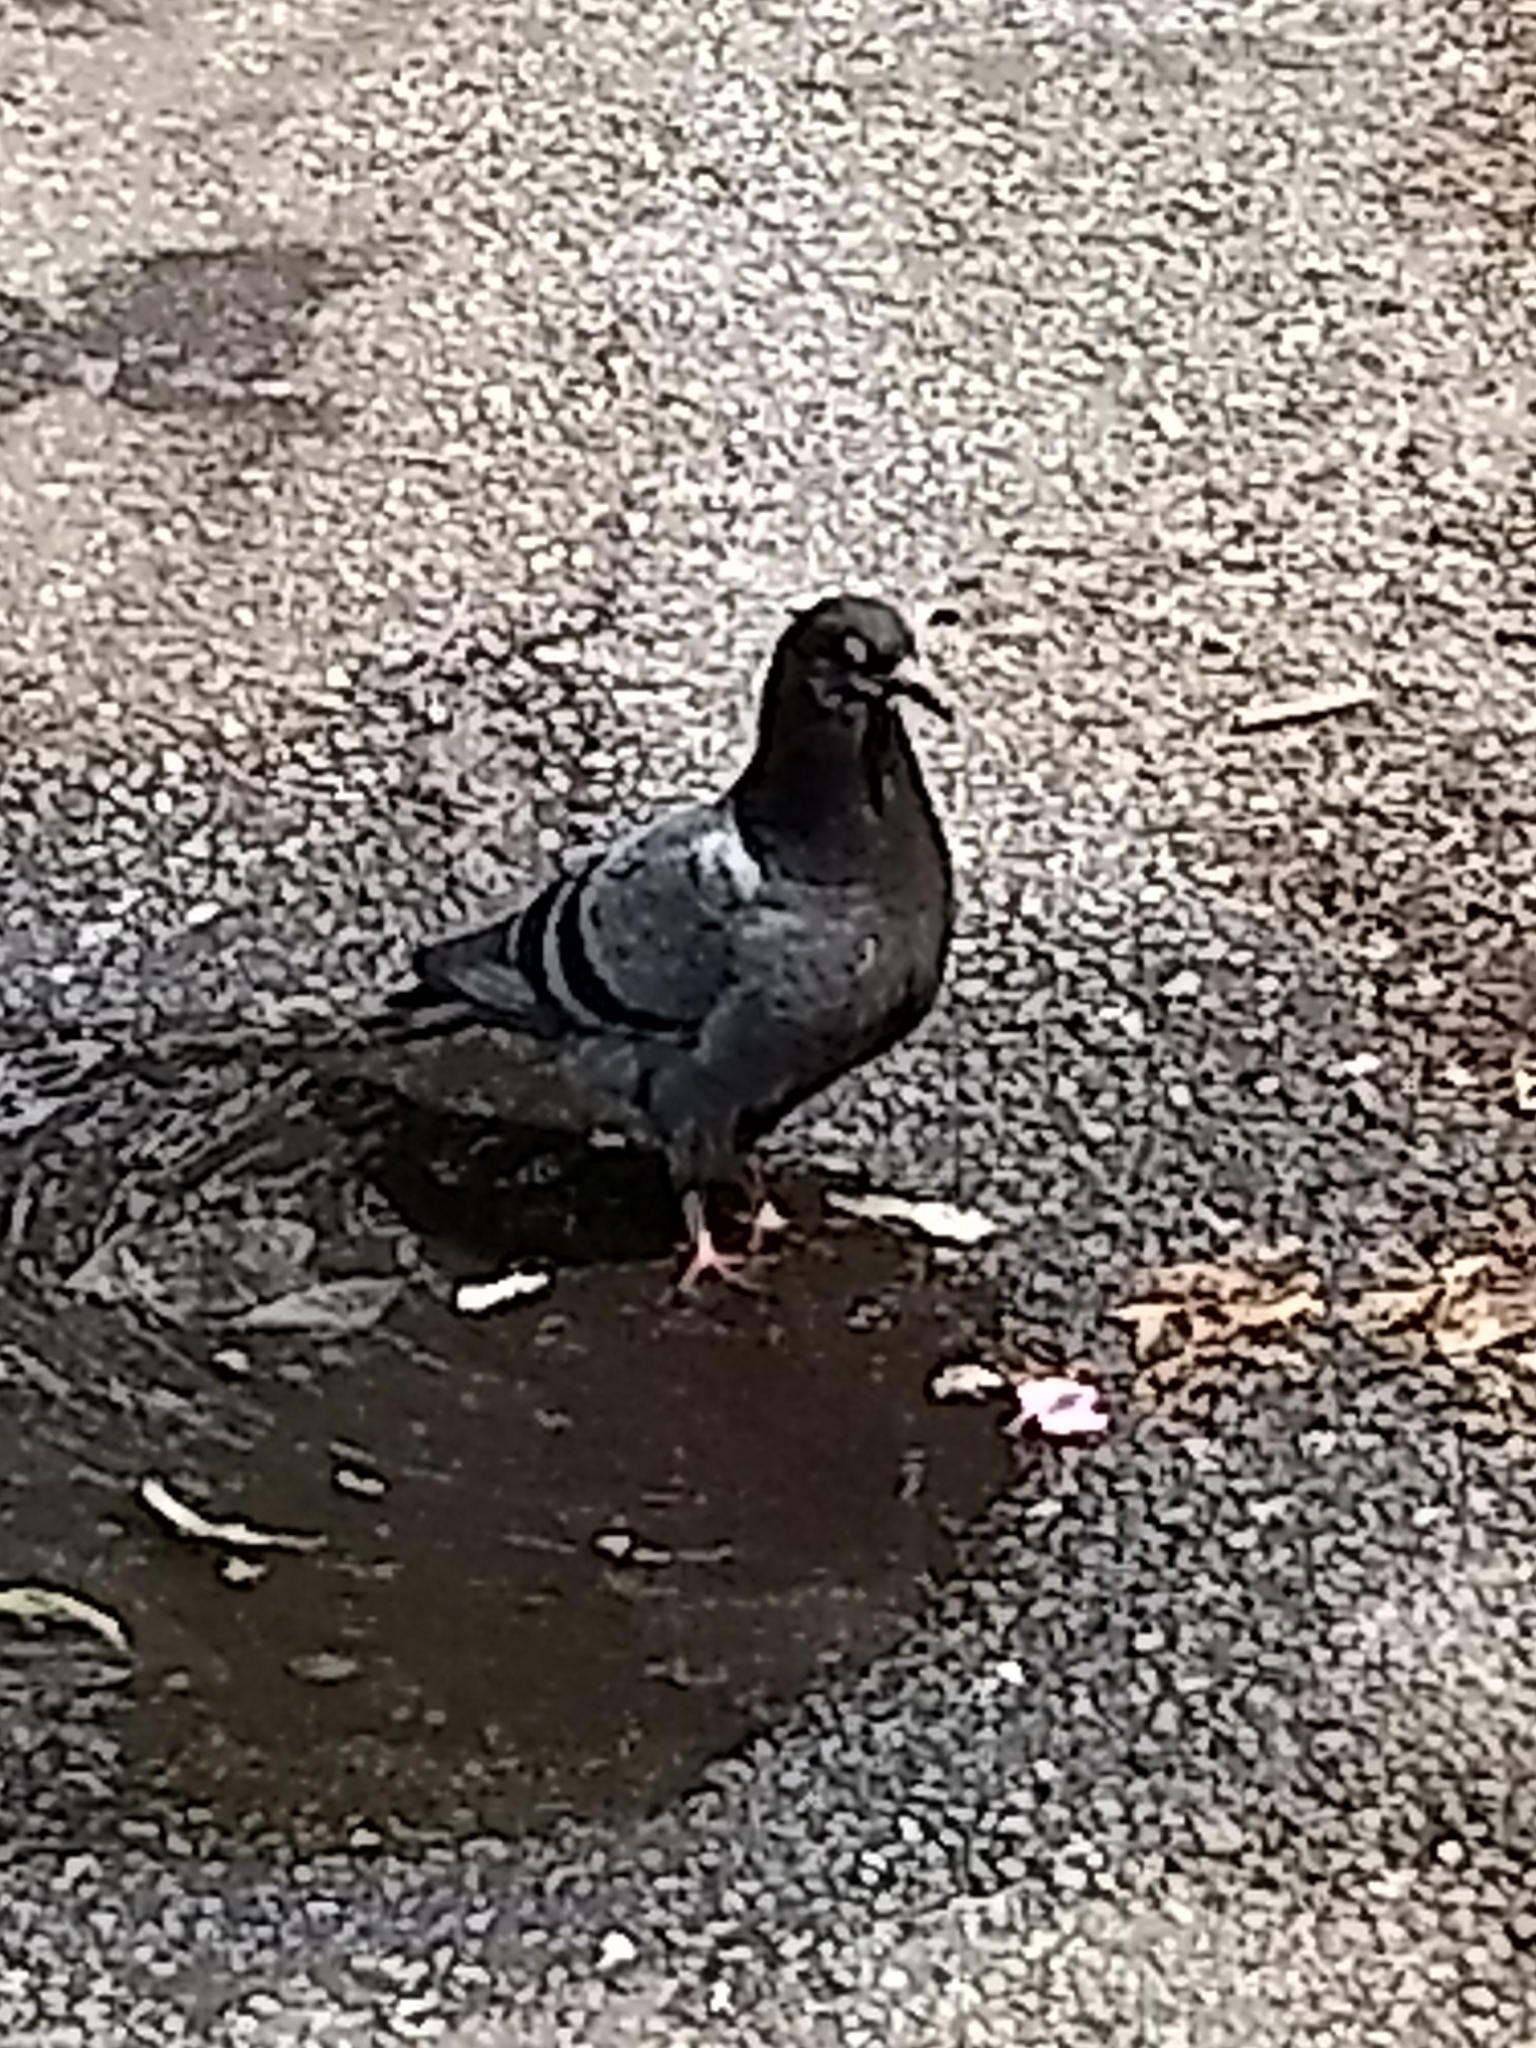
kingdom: Animalia
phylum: Chordata
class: Aves
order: Columbiformes
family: Columbidae
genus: Columba
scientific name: Columba livia
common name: Rock pigeon
